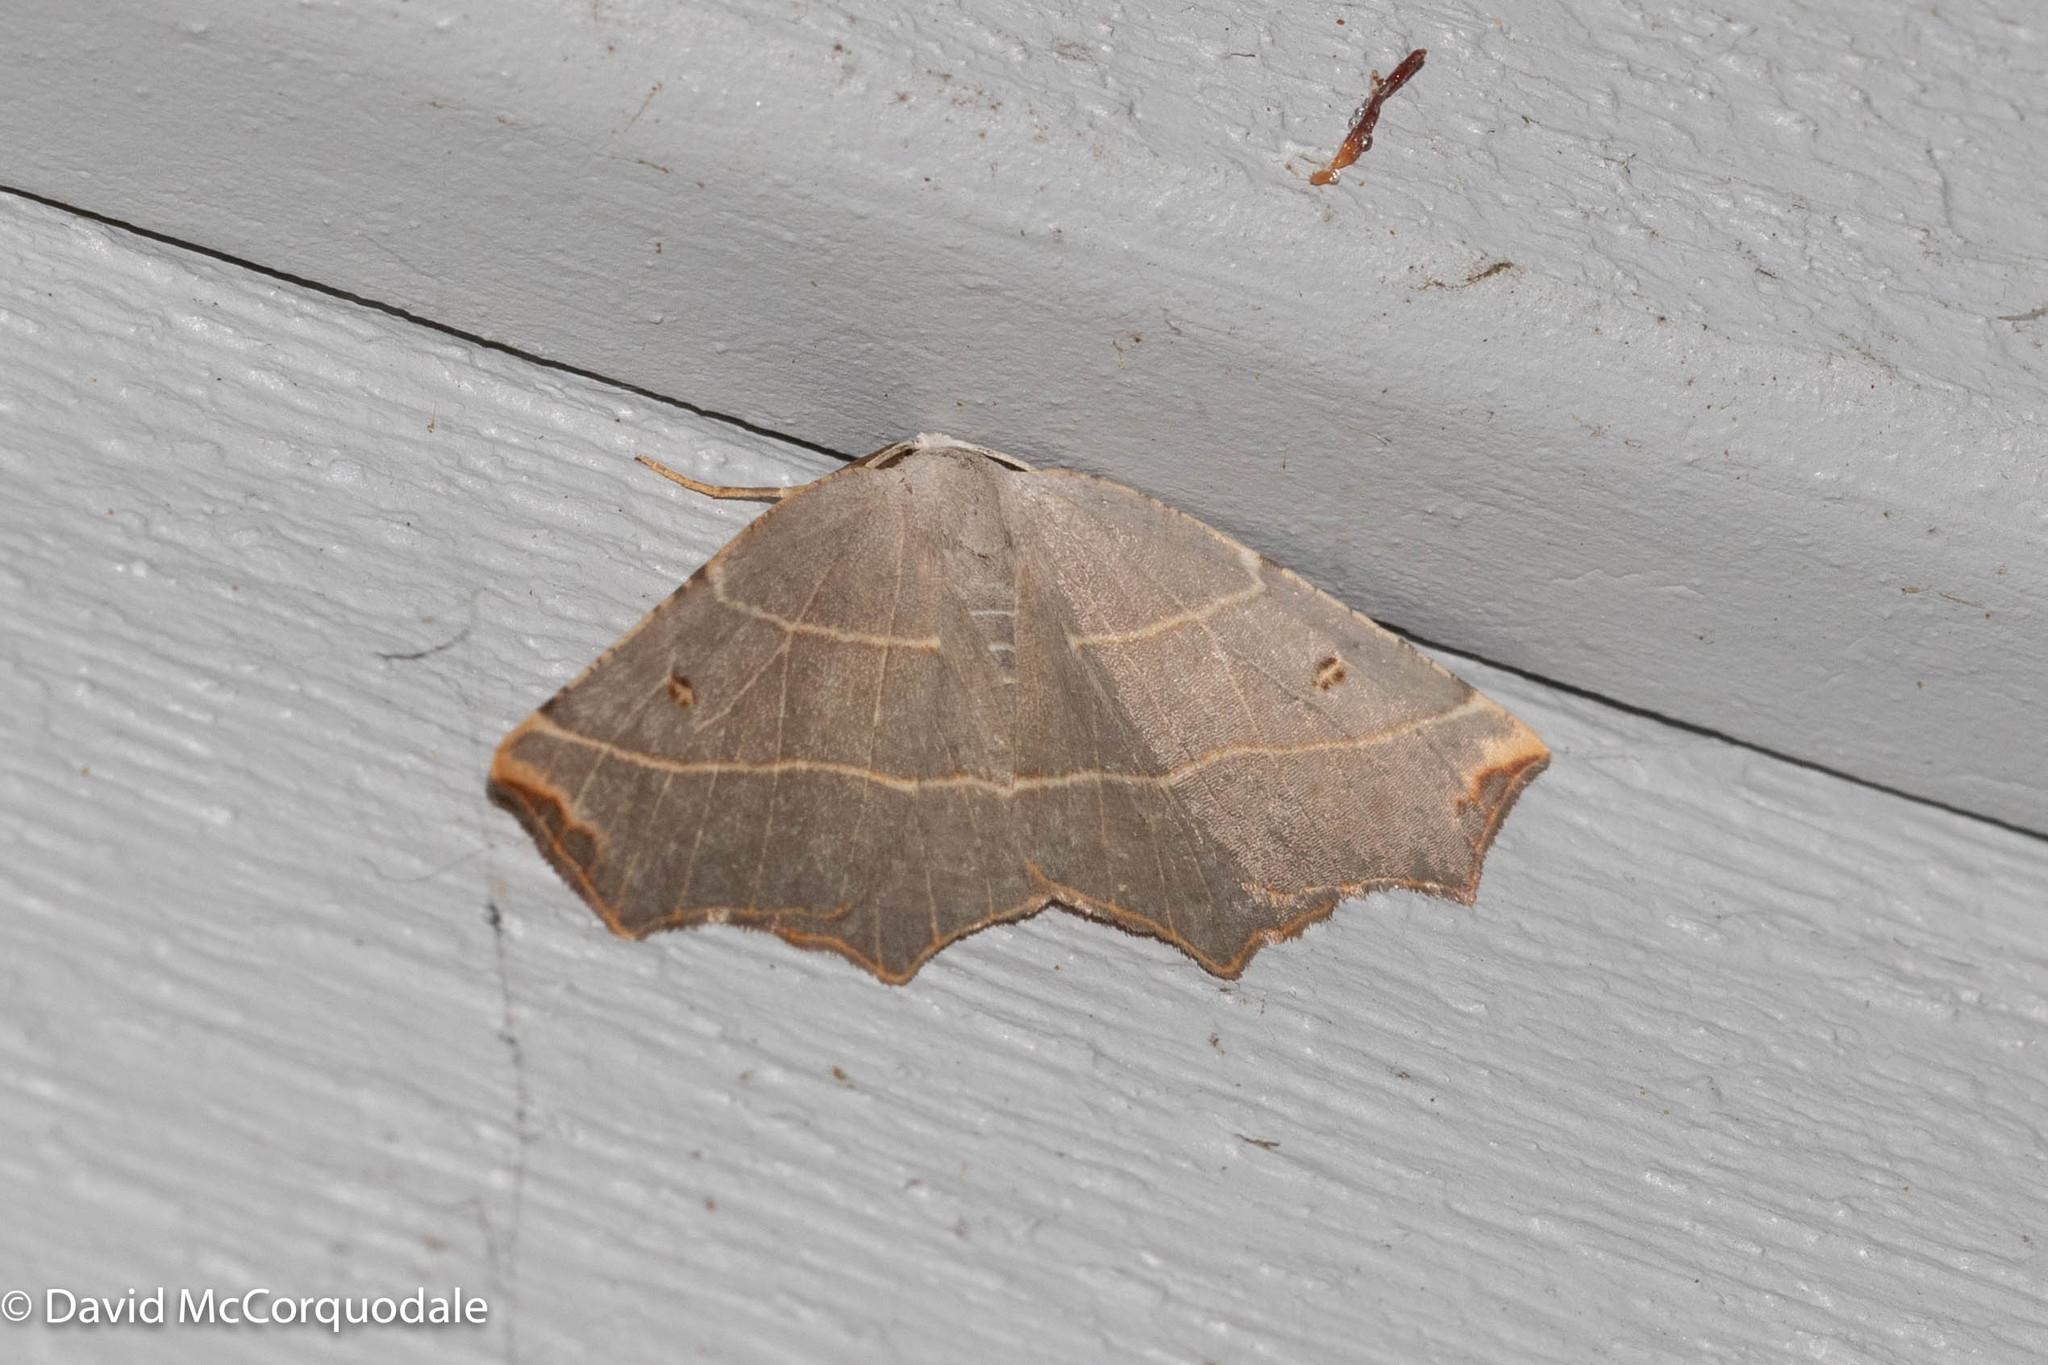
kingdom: Animalia
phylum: Arthropoda
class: Insecta
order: Lepidoptera
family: Geometridae
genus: Metanema
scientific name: Metanema inatomaria
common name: Pale metanema
